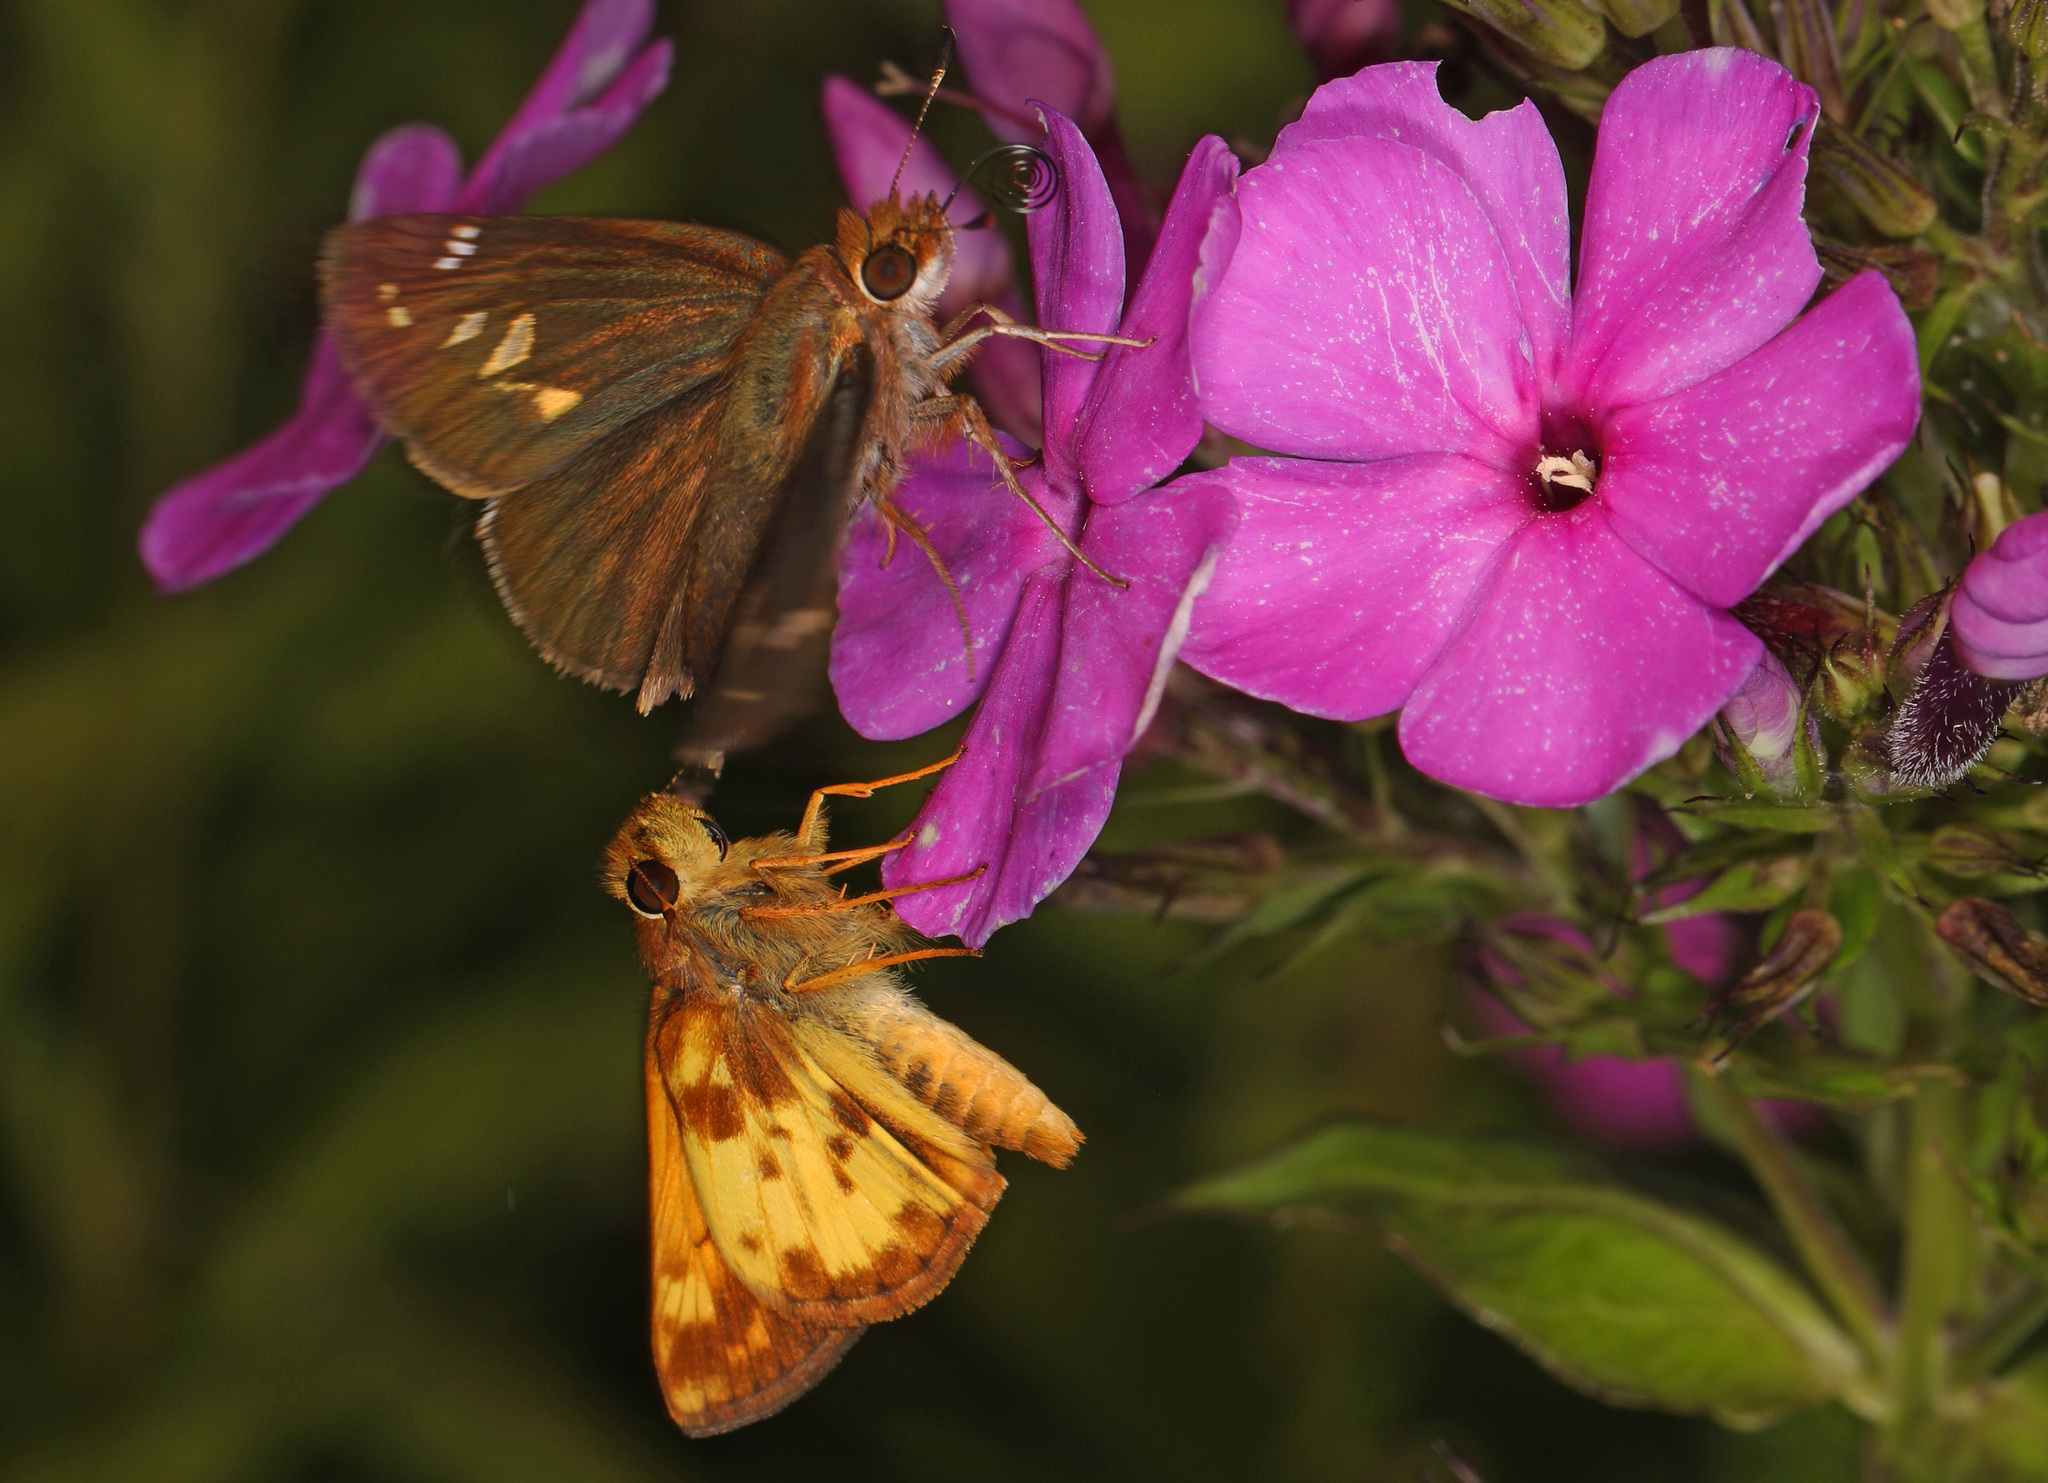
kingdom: Animalia
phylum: Arthropoda
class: Insecta
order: Lepidoptera
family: Hesperiidae
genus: Lon
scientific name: Lon zabulon
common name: Zabulon skipper
